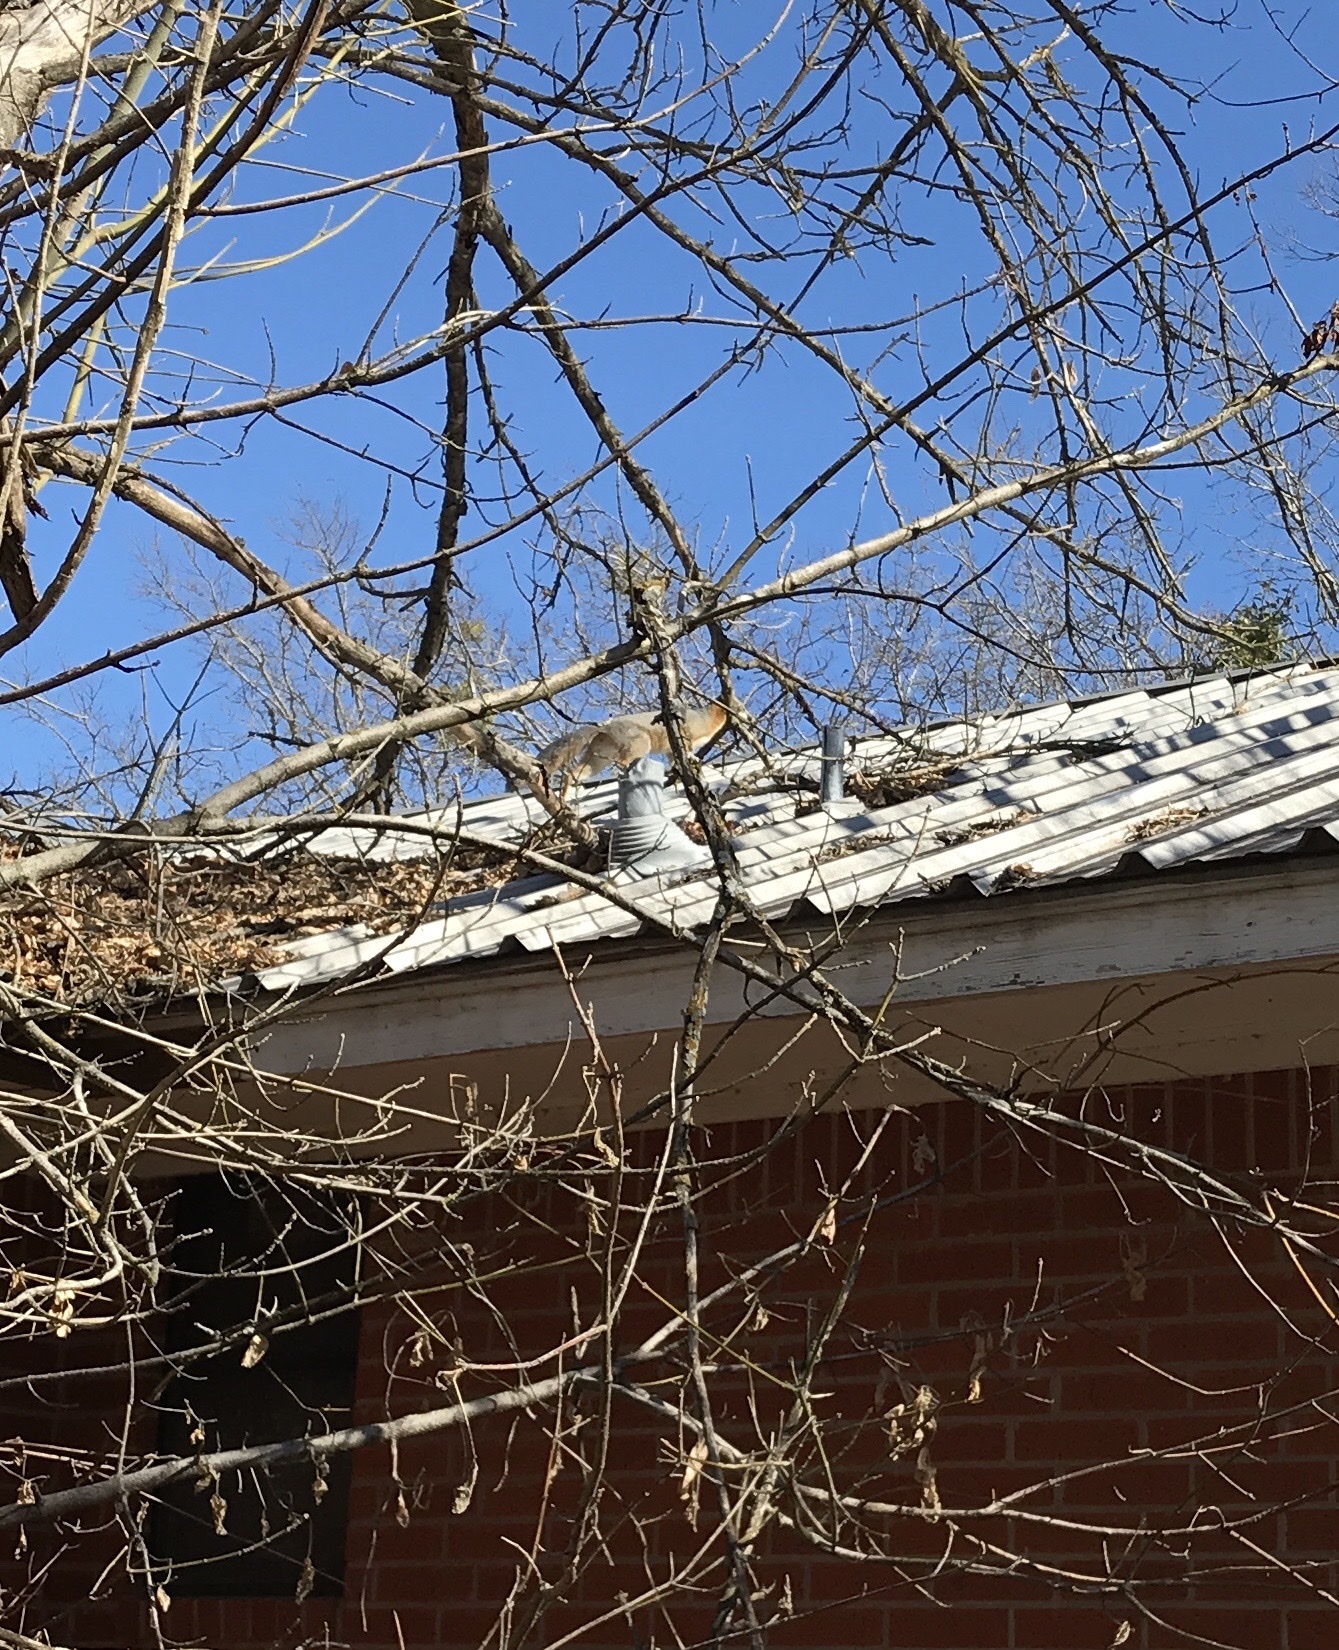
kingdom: Animalia
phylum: Chordata
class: Mammalia
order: Carnivora
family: Canidae
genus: Urocyon
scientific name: Urocyon cinereoargenteus
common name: Gray fox
